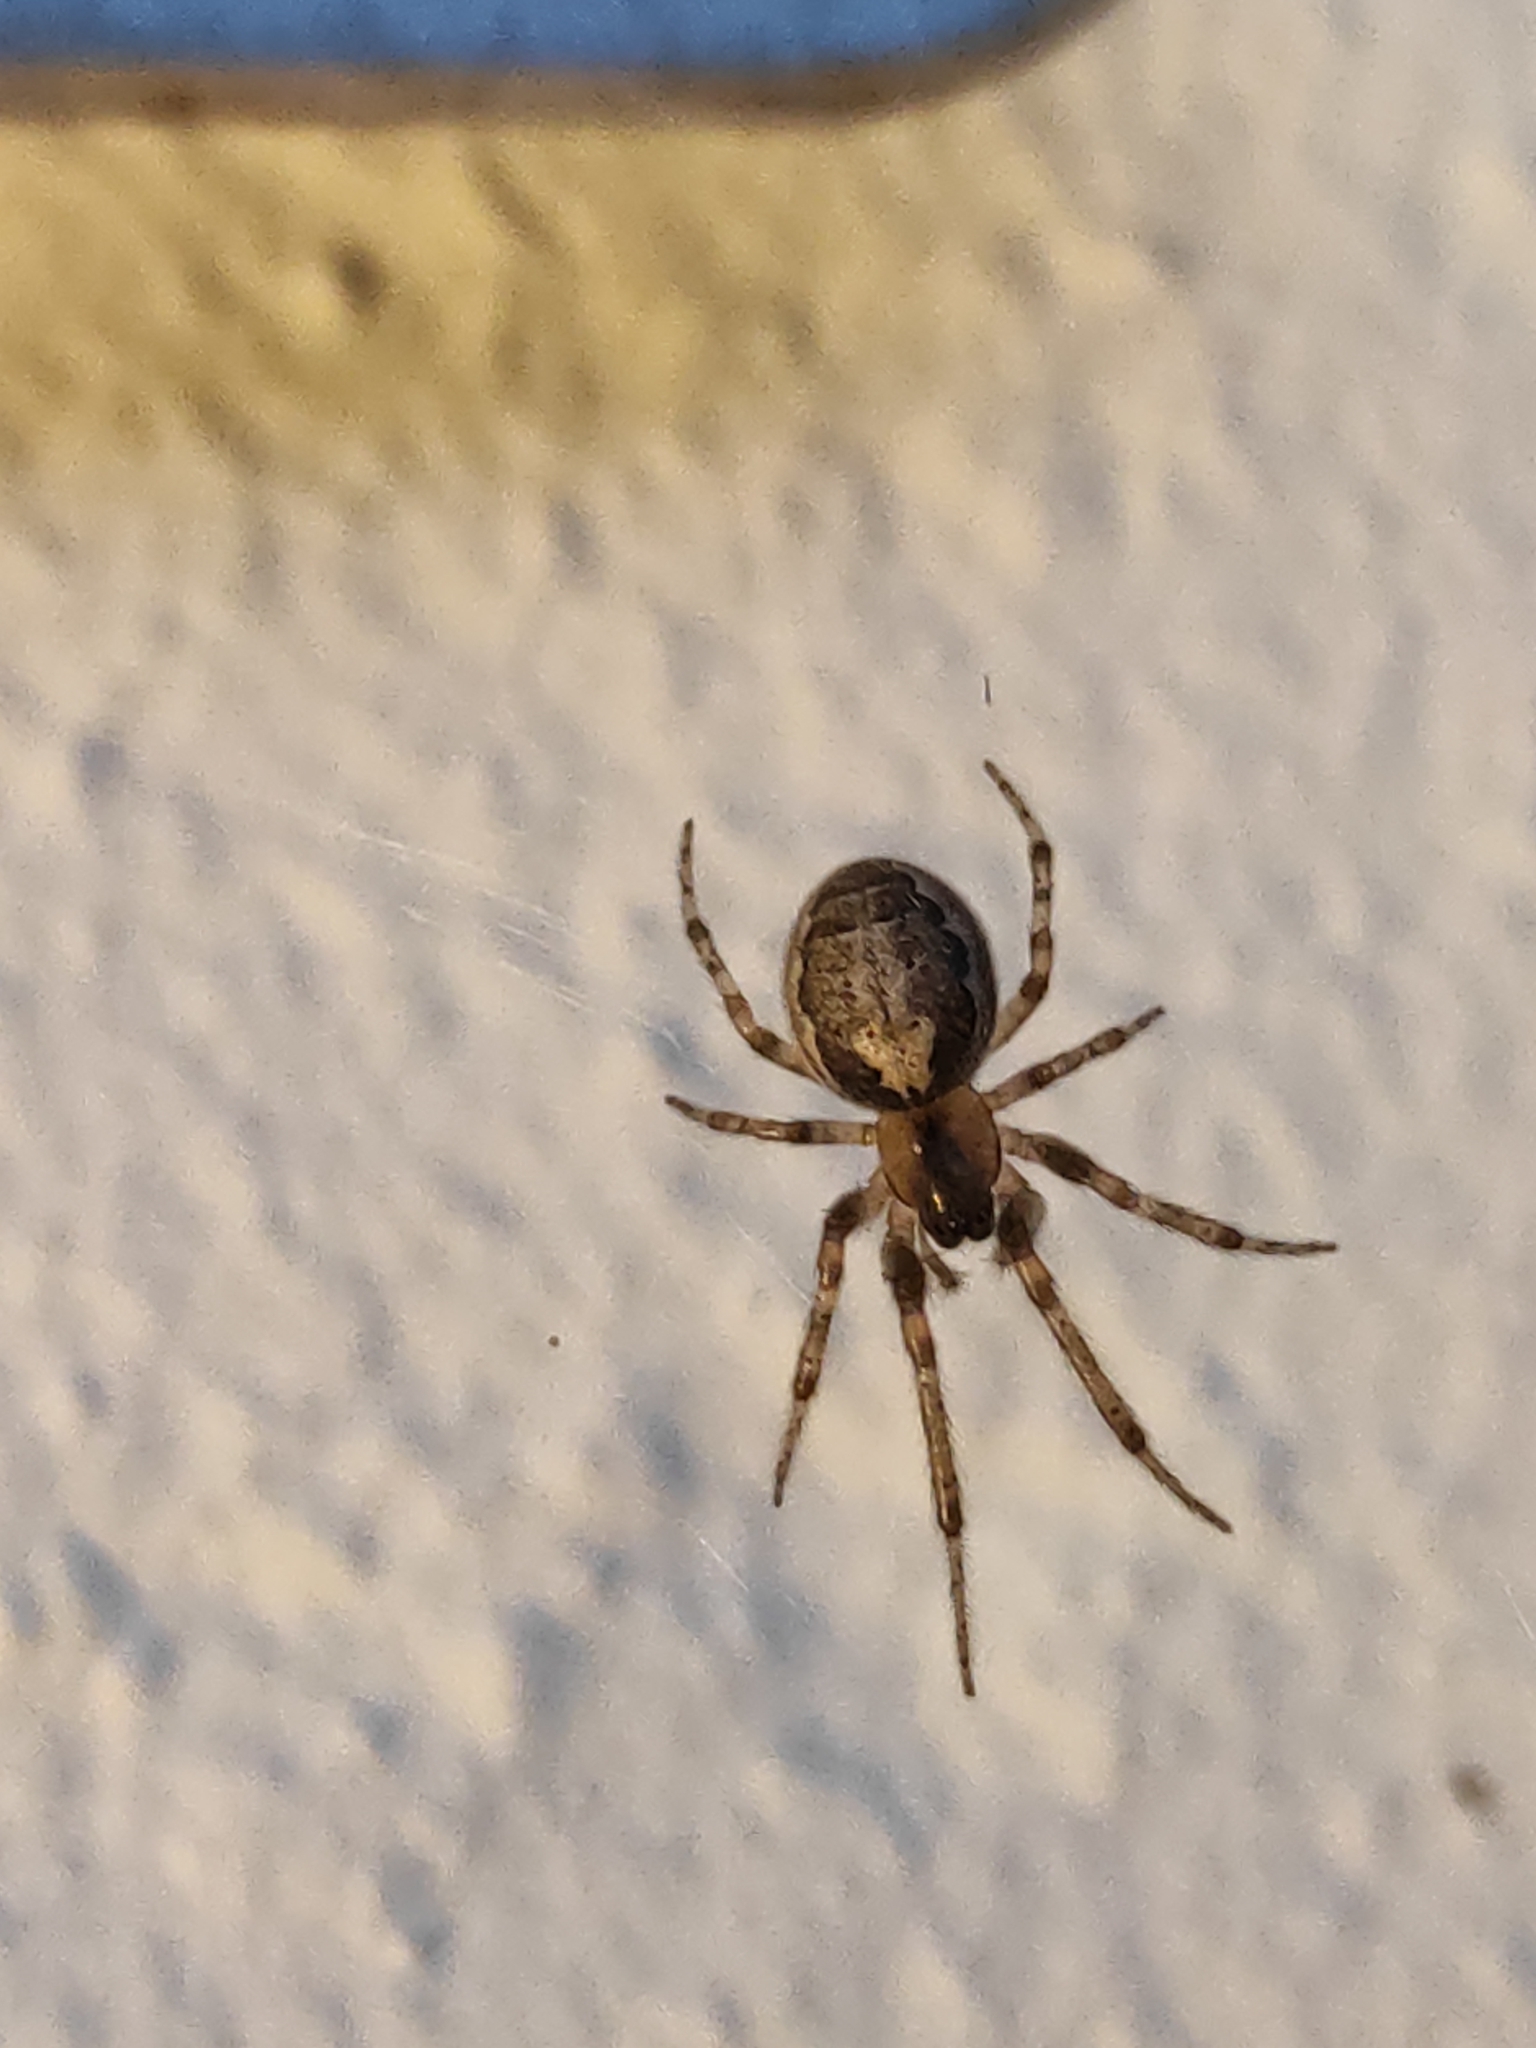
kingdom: Animalia
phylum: Arthropoda
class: Arachnida
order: Araneae
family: Araneidae
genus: Zygiella
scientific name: Zygiella x-notata
